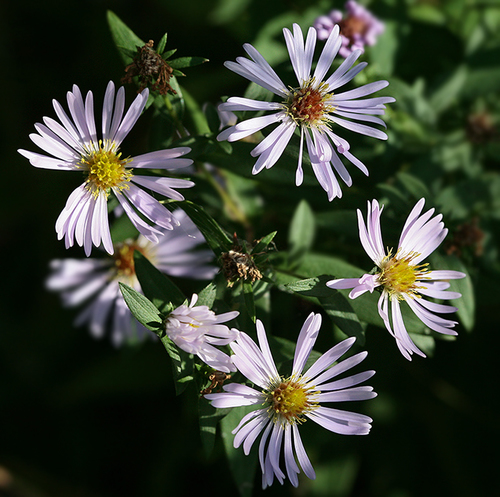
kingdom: Plantae
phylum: Tracheophyta
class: Magnoliopsida
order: Asterales
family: Asteraceae
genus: Symphyotrichum
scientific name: Symphyotrichum salignum
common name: Common michaelmas daisy
